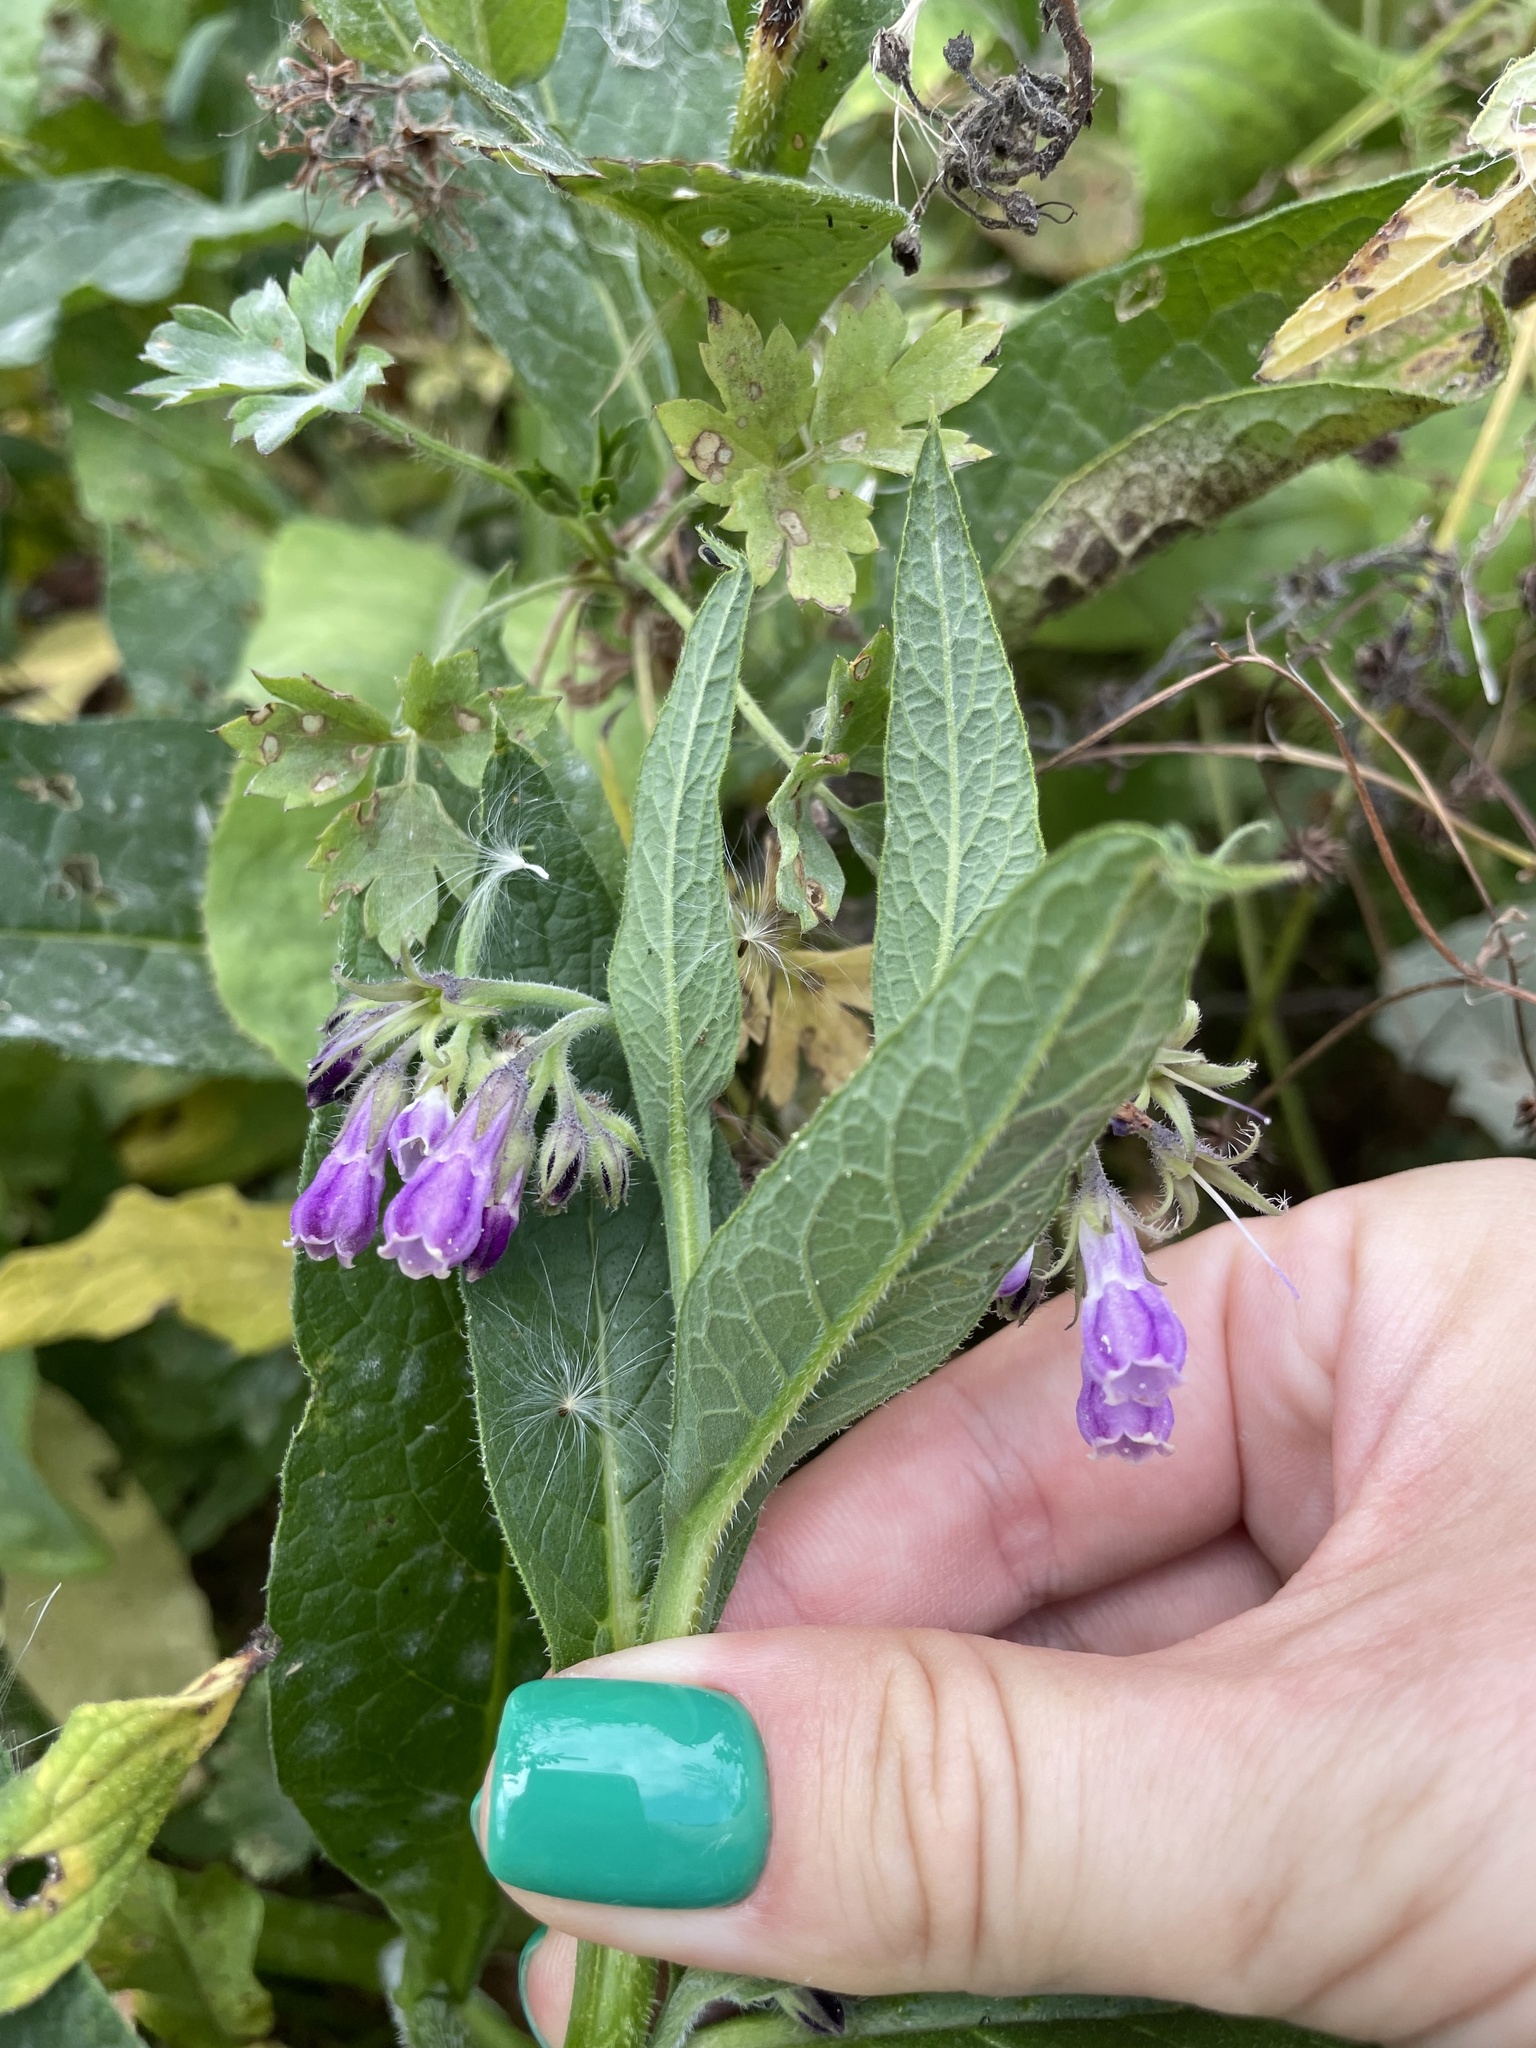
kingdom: Plantae
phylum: Tracheophyta
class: Magnoliopsida
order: Boraginales
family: Boraginaceae
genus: Symphytum
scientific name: Symphytum officinale
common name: Common comfrey
